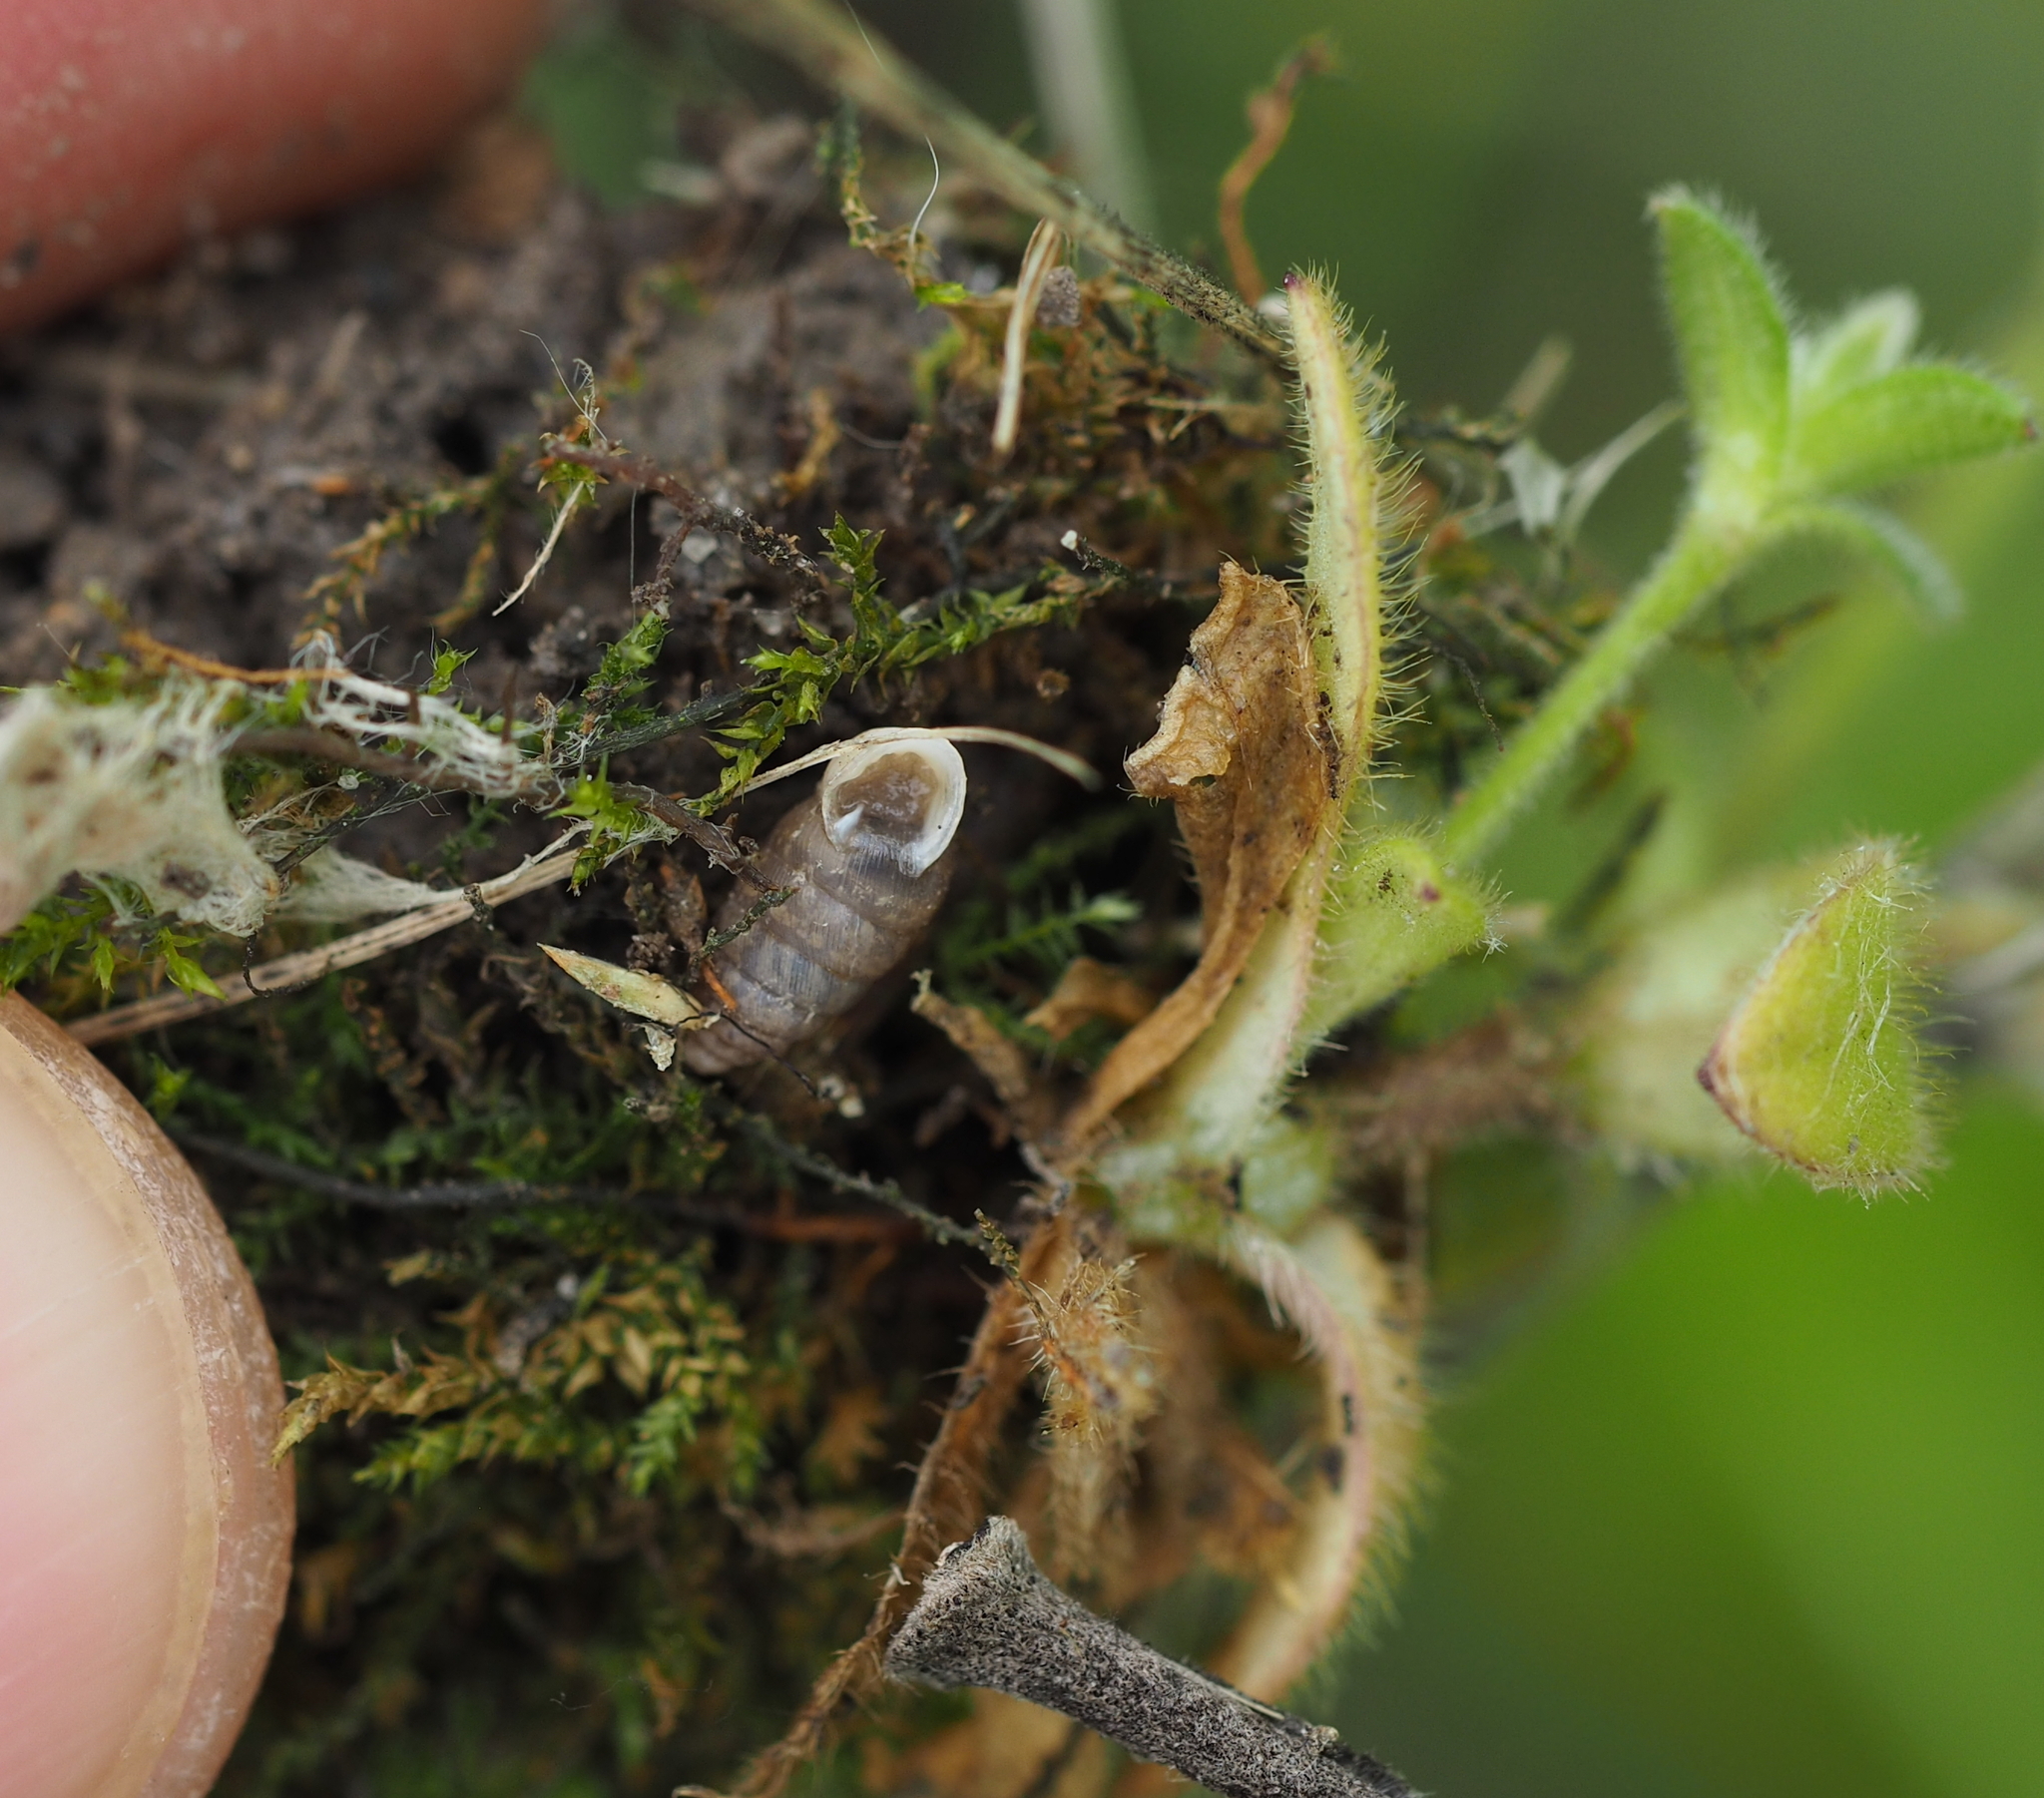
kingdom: Animalia
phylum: Mollusca
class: Gastropoda
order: Stylommatophora
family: Chondrinidae
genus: Granaria
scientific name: Granaria frumentum
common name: An air-breathing land snail
